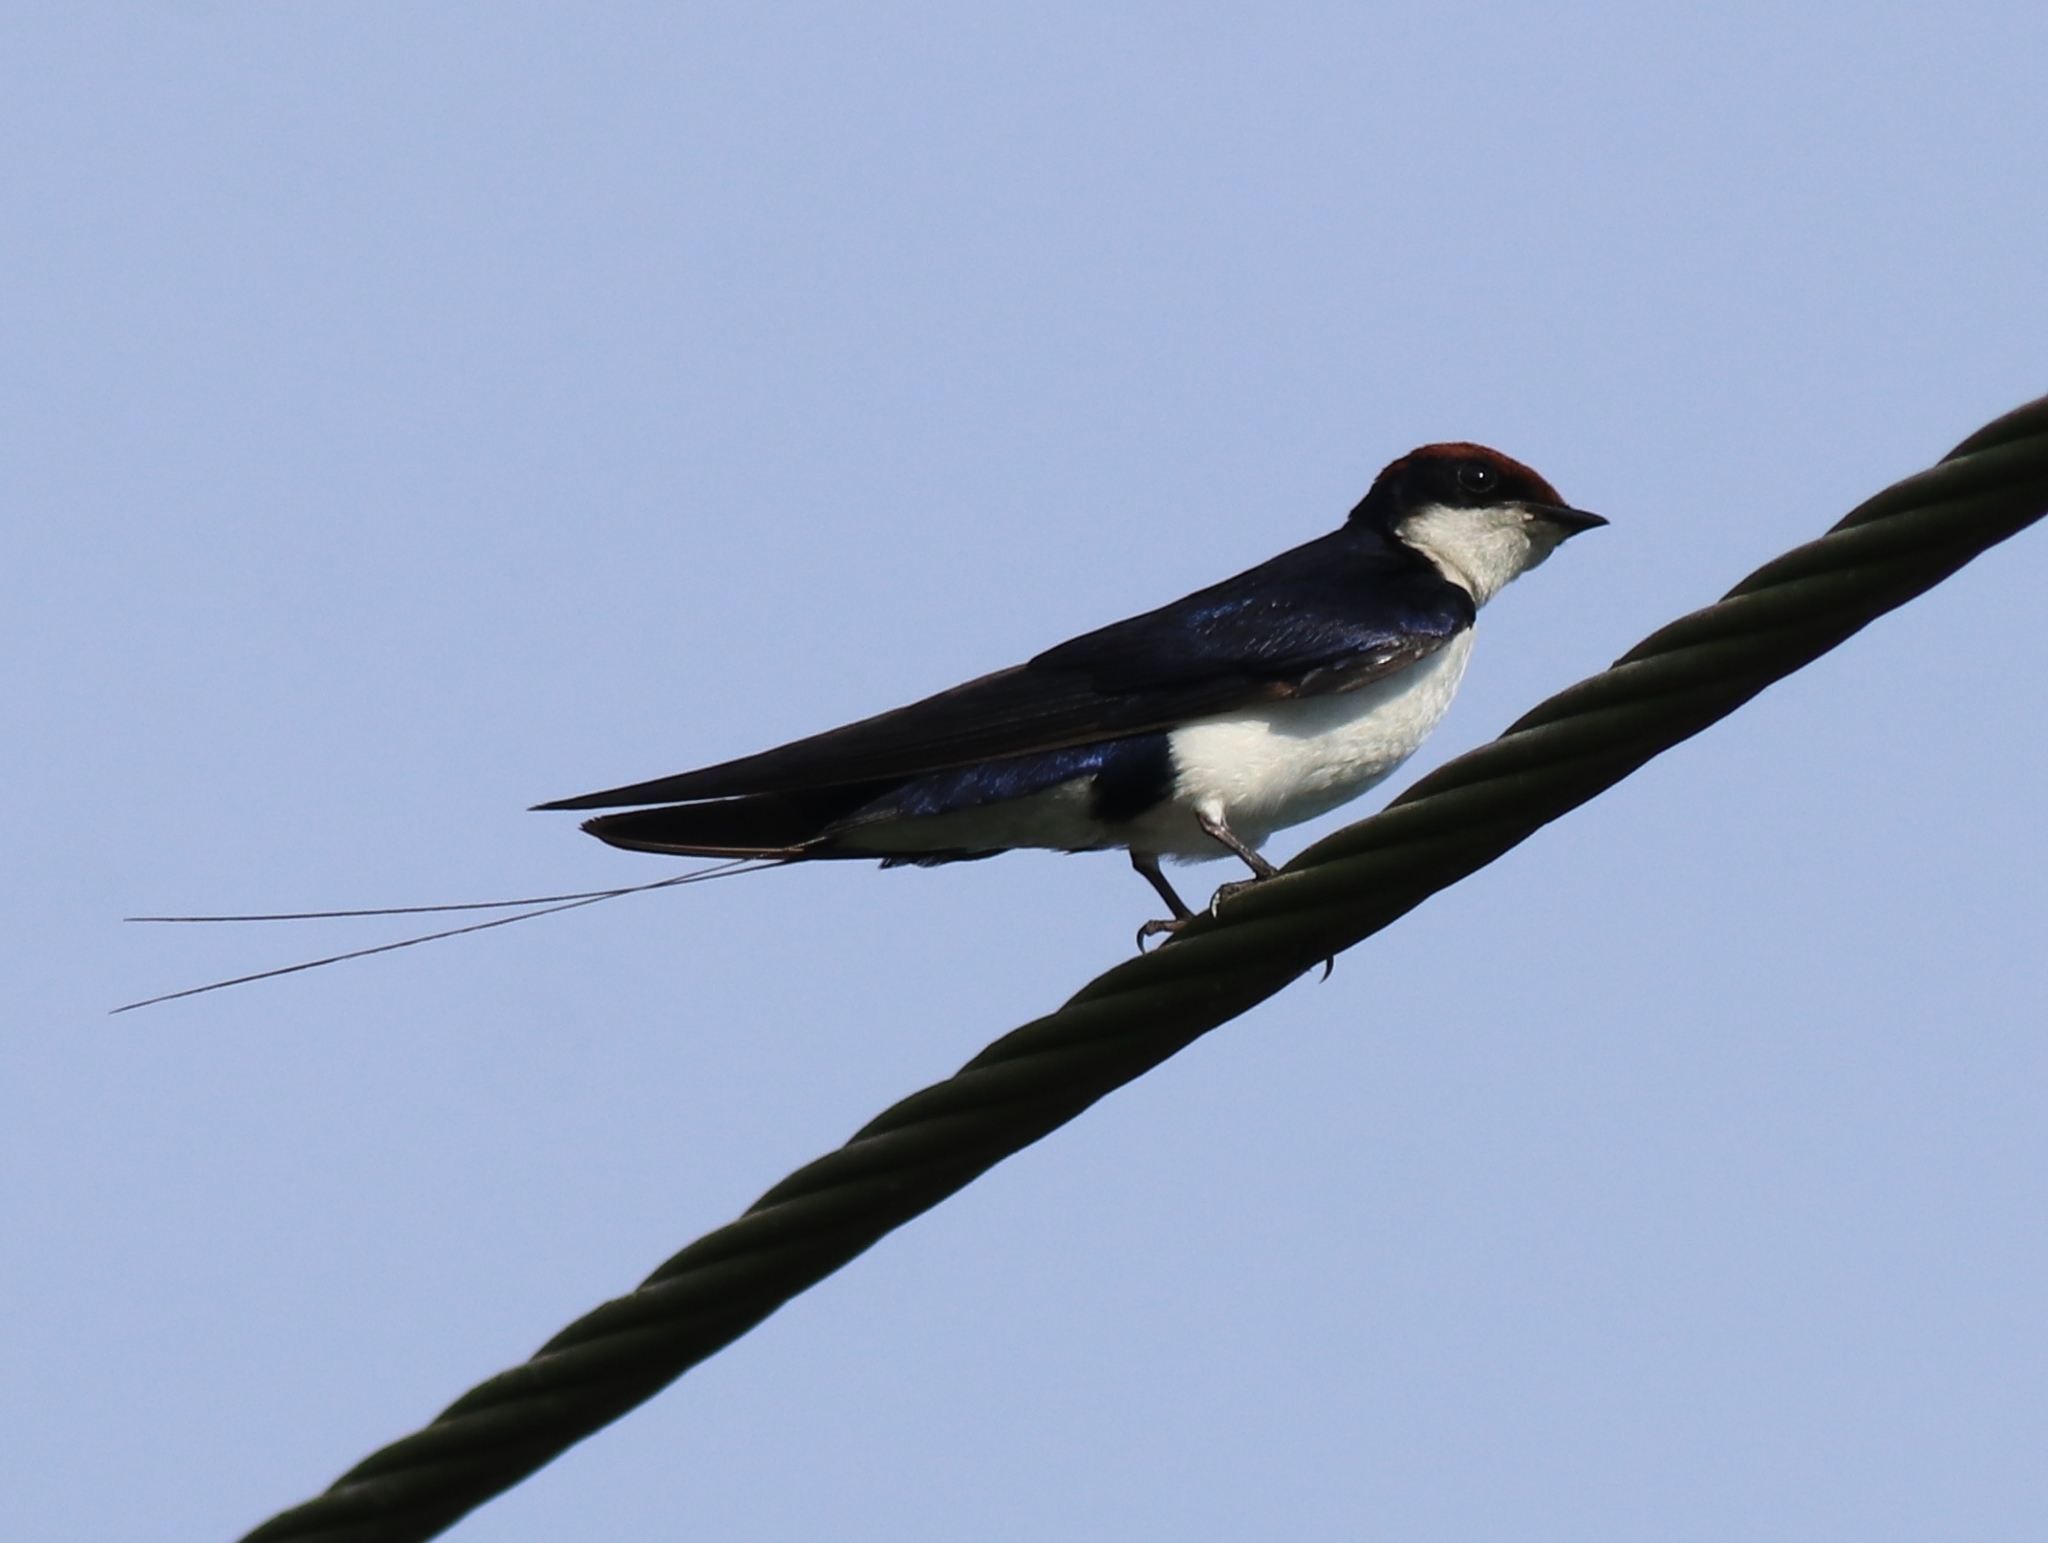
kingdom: Animalia
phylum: Chordata
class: Aves
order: Passeriformes
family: Hirundinidae
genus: Hirundo
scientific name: Hirundo smithii
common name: Wire-tailed swallow
